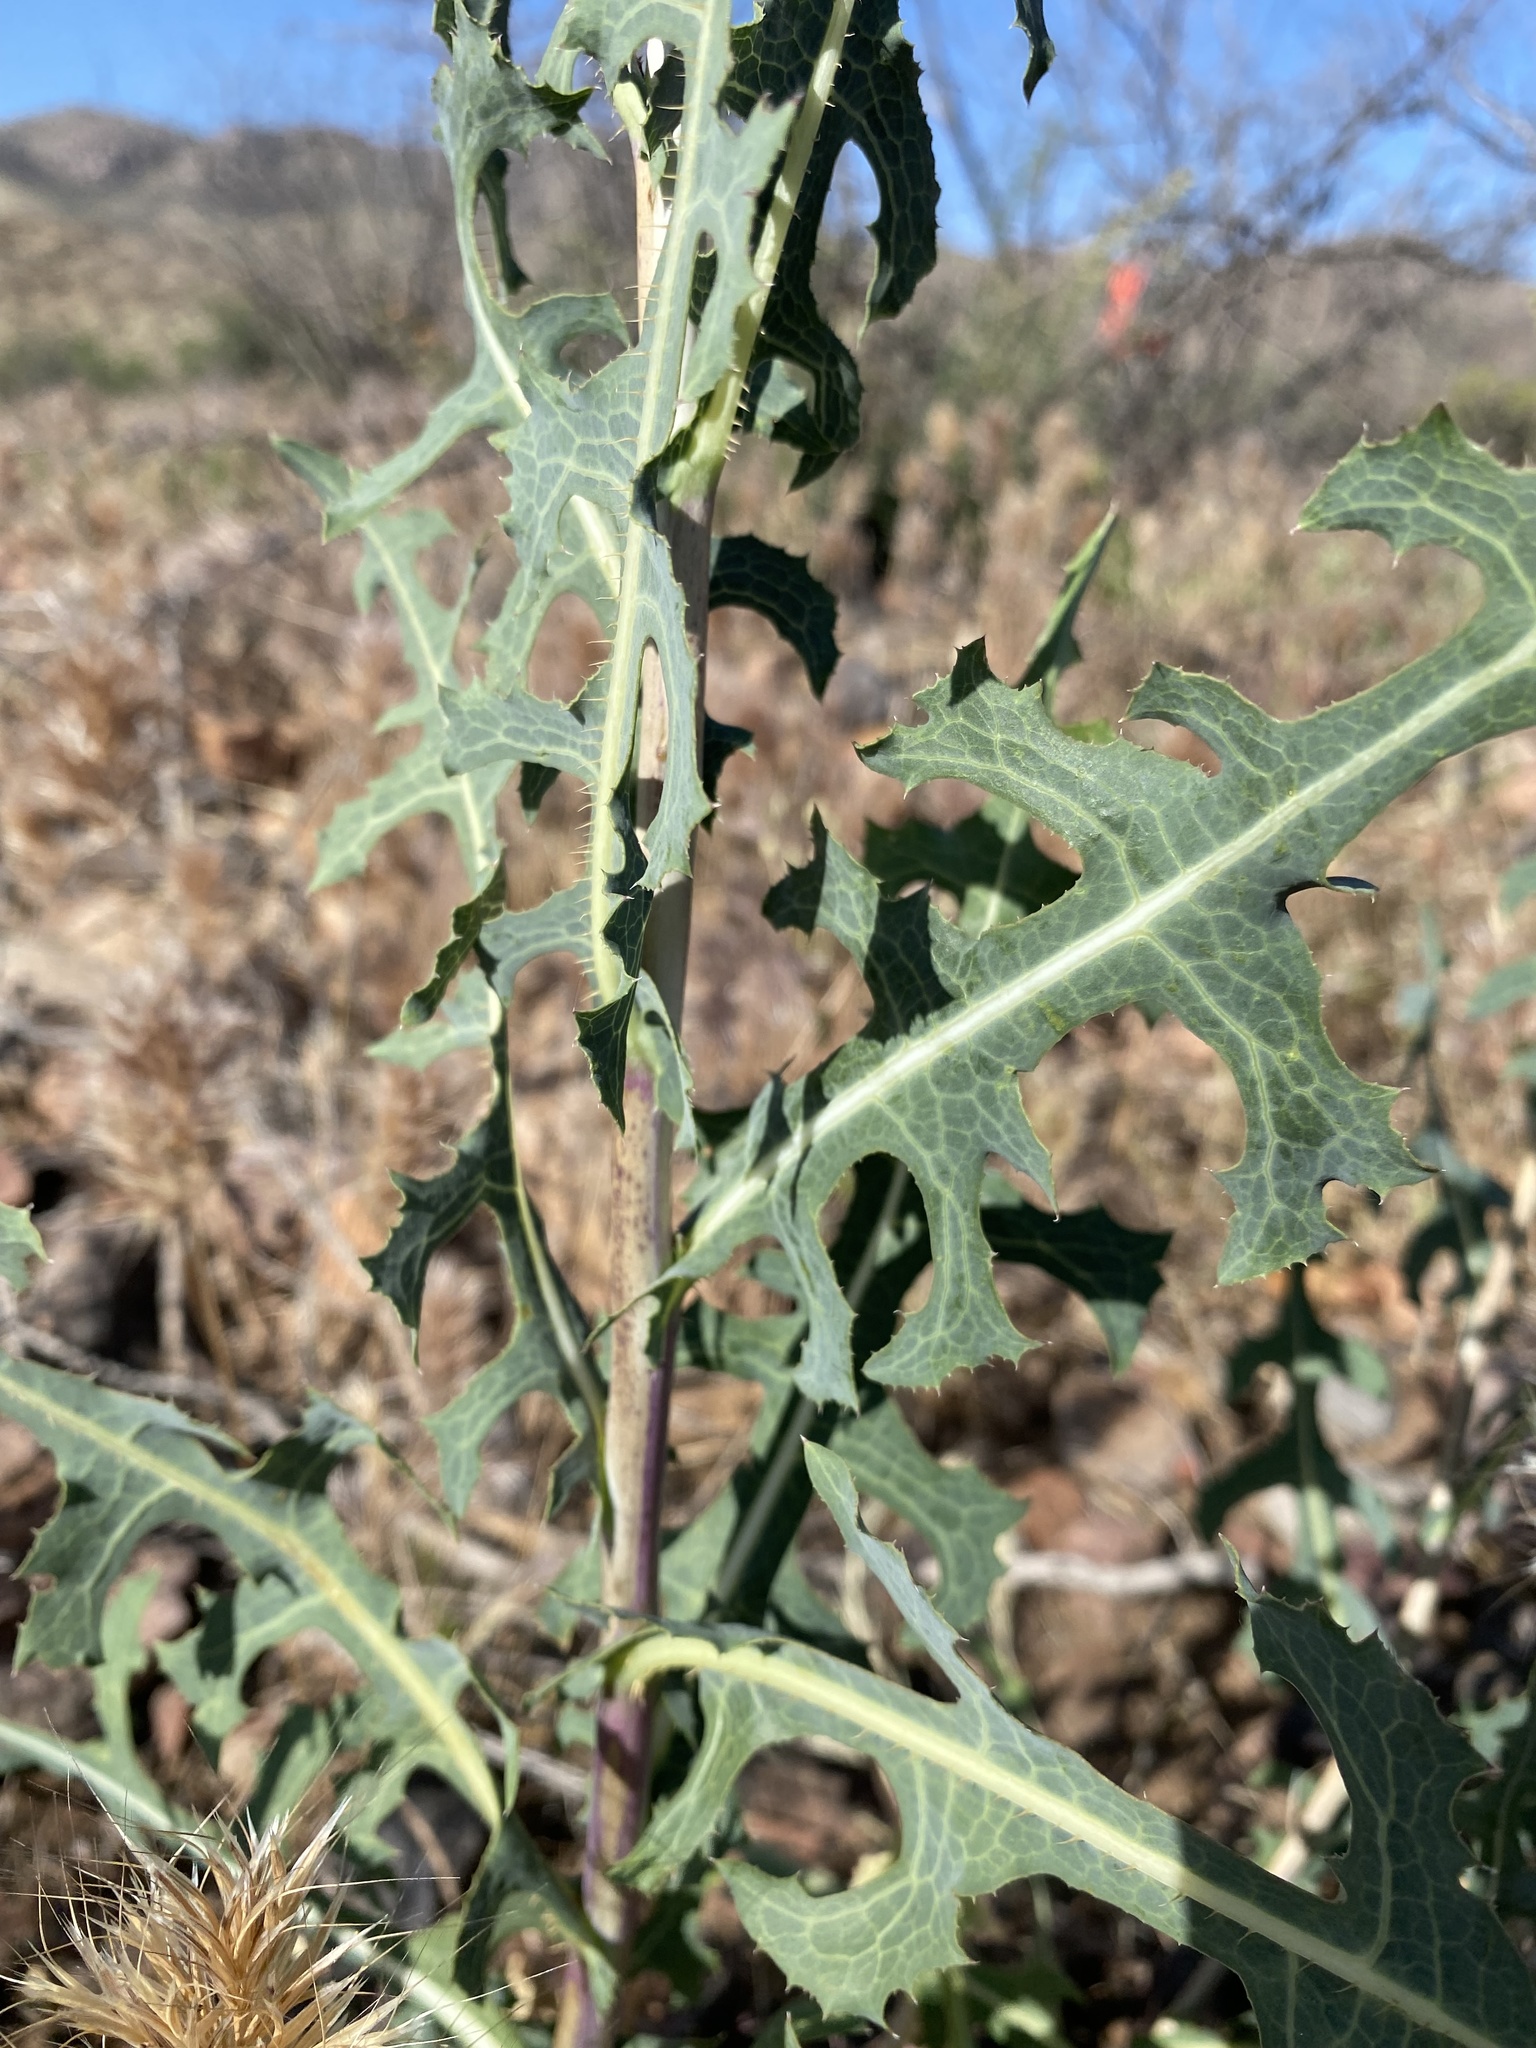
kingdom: Plantae
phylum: Tracheophyta
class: Magnoliopsida
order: Asterales
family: Asteraceae
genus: Lactuca
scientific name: Lactuca serriola
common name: Prickly lettuce
